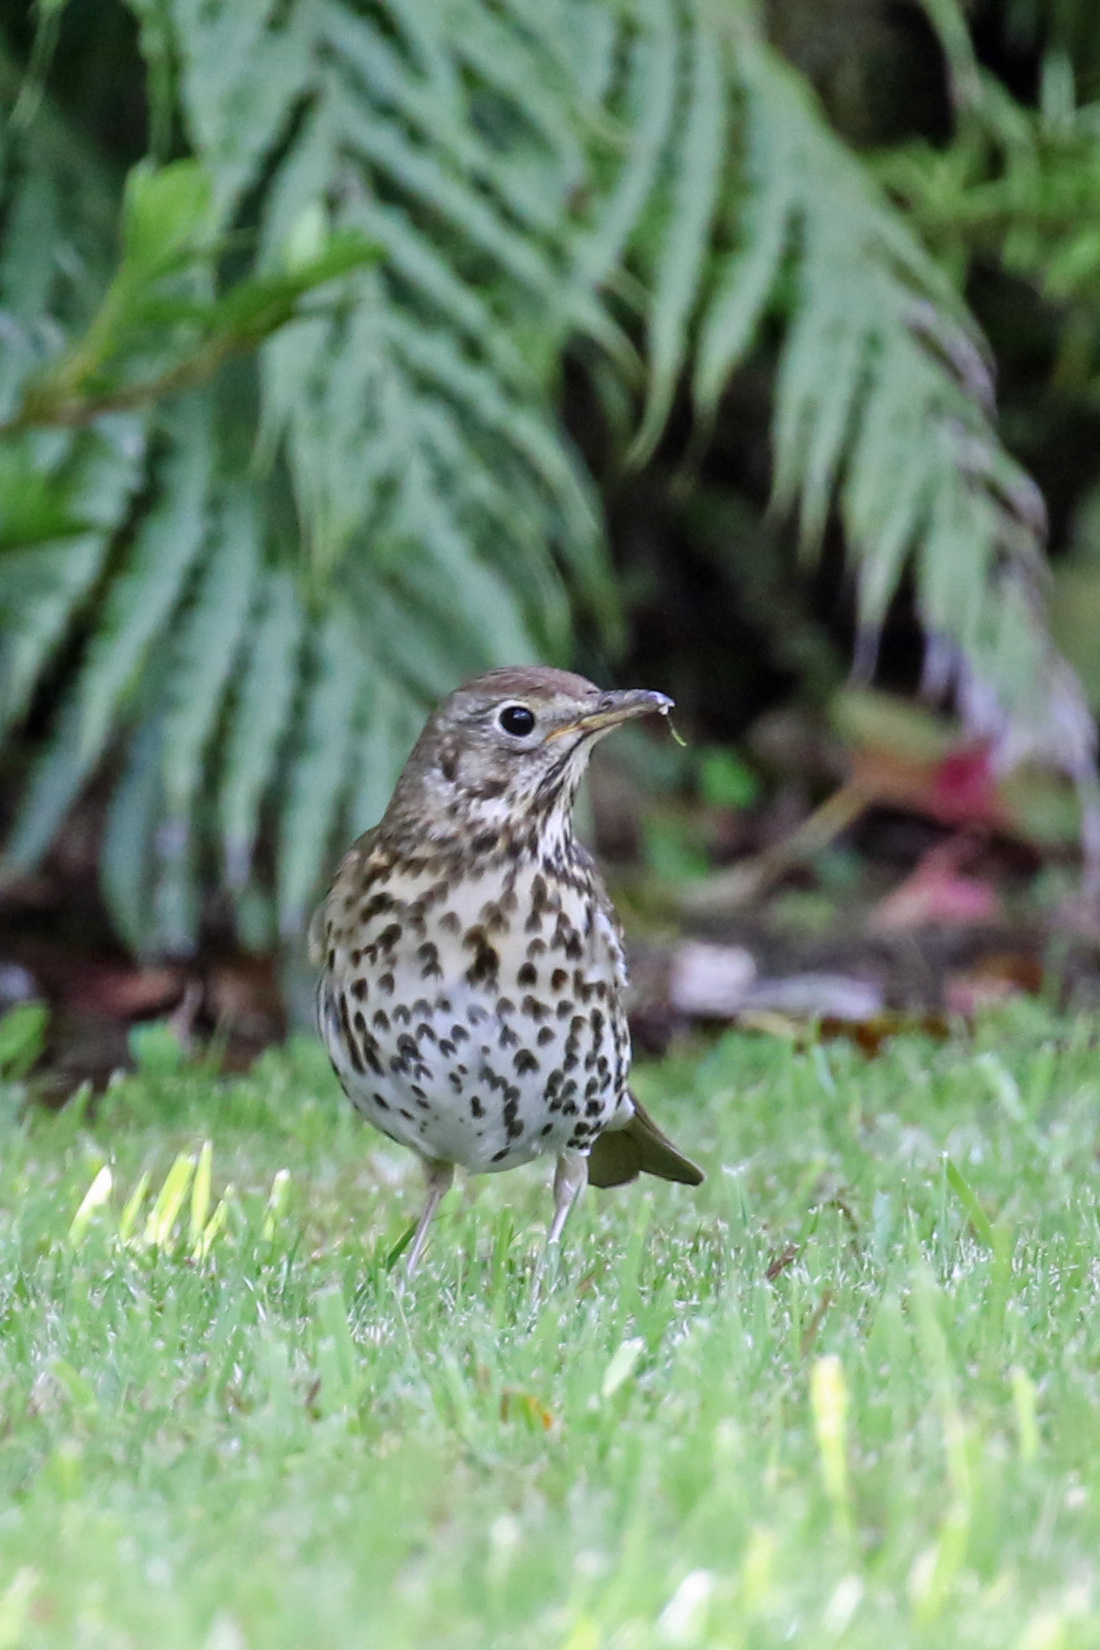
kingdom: Animalia
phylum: Chordata
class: Aves
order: Passeriformes
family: Turdidae
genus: Turdus
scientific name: Turdus philomelos
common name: Song thrush
